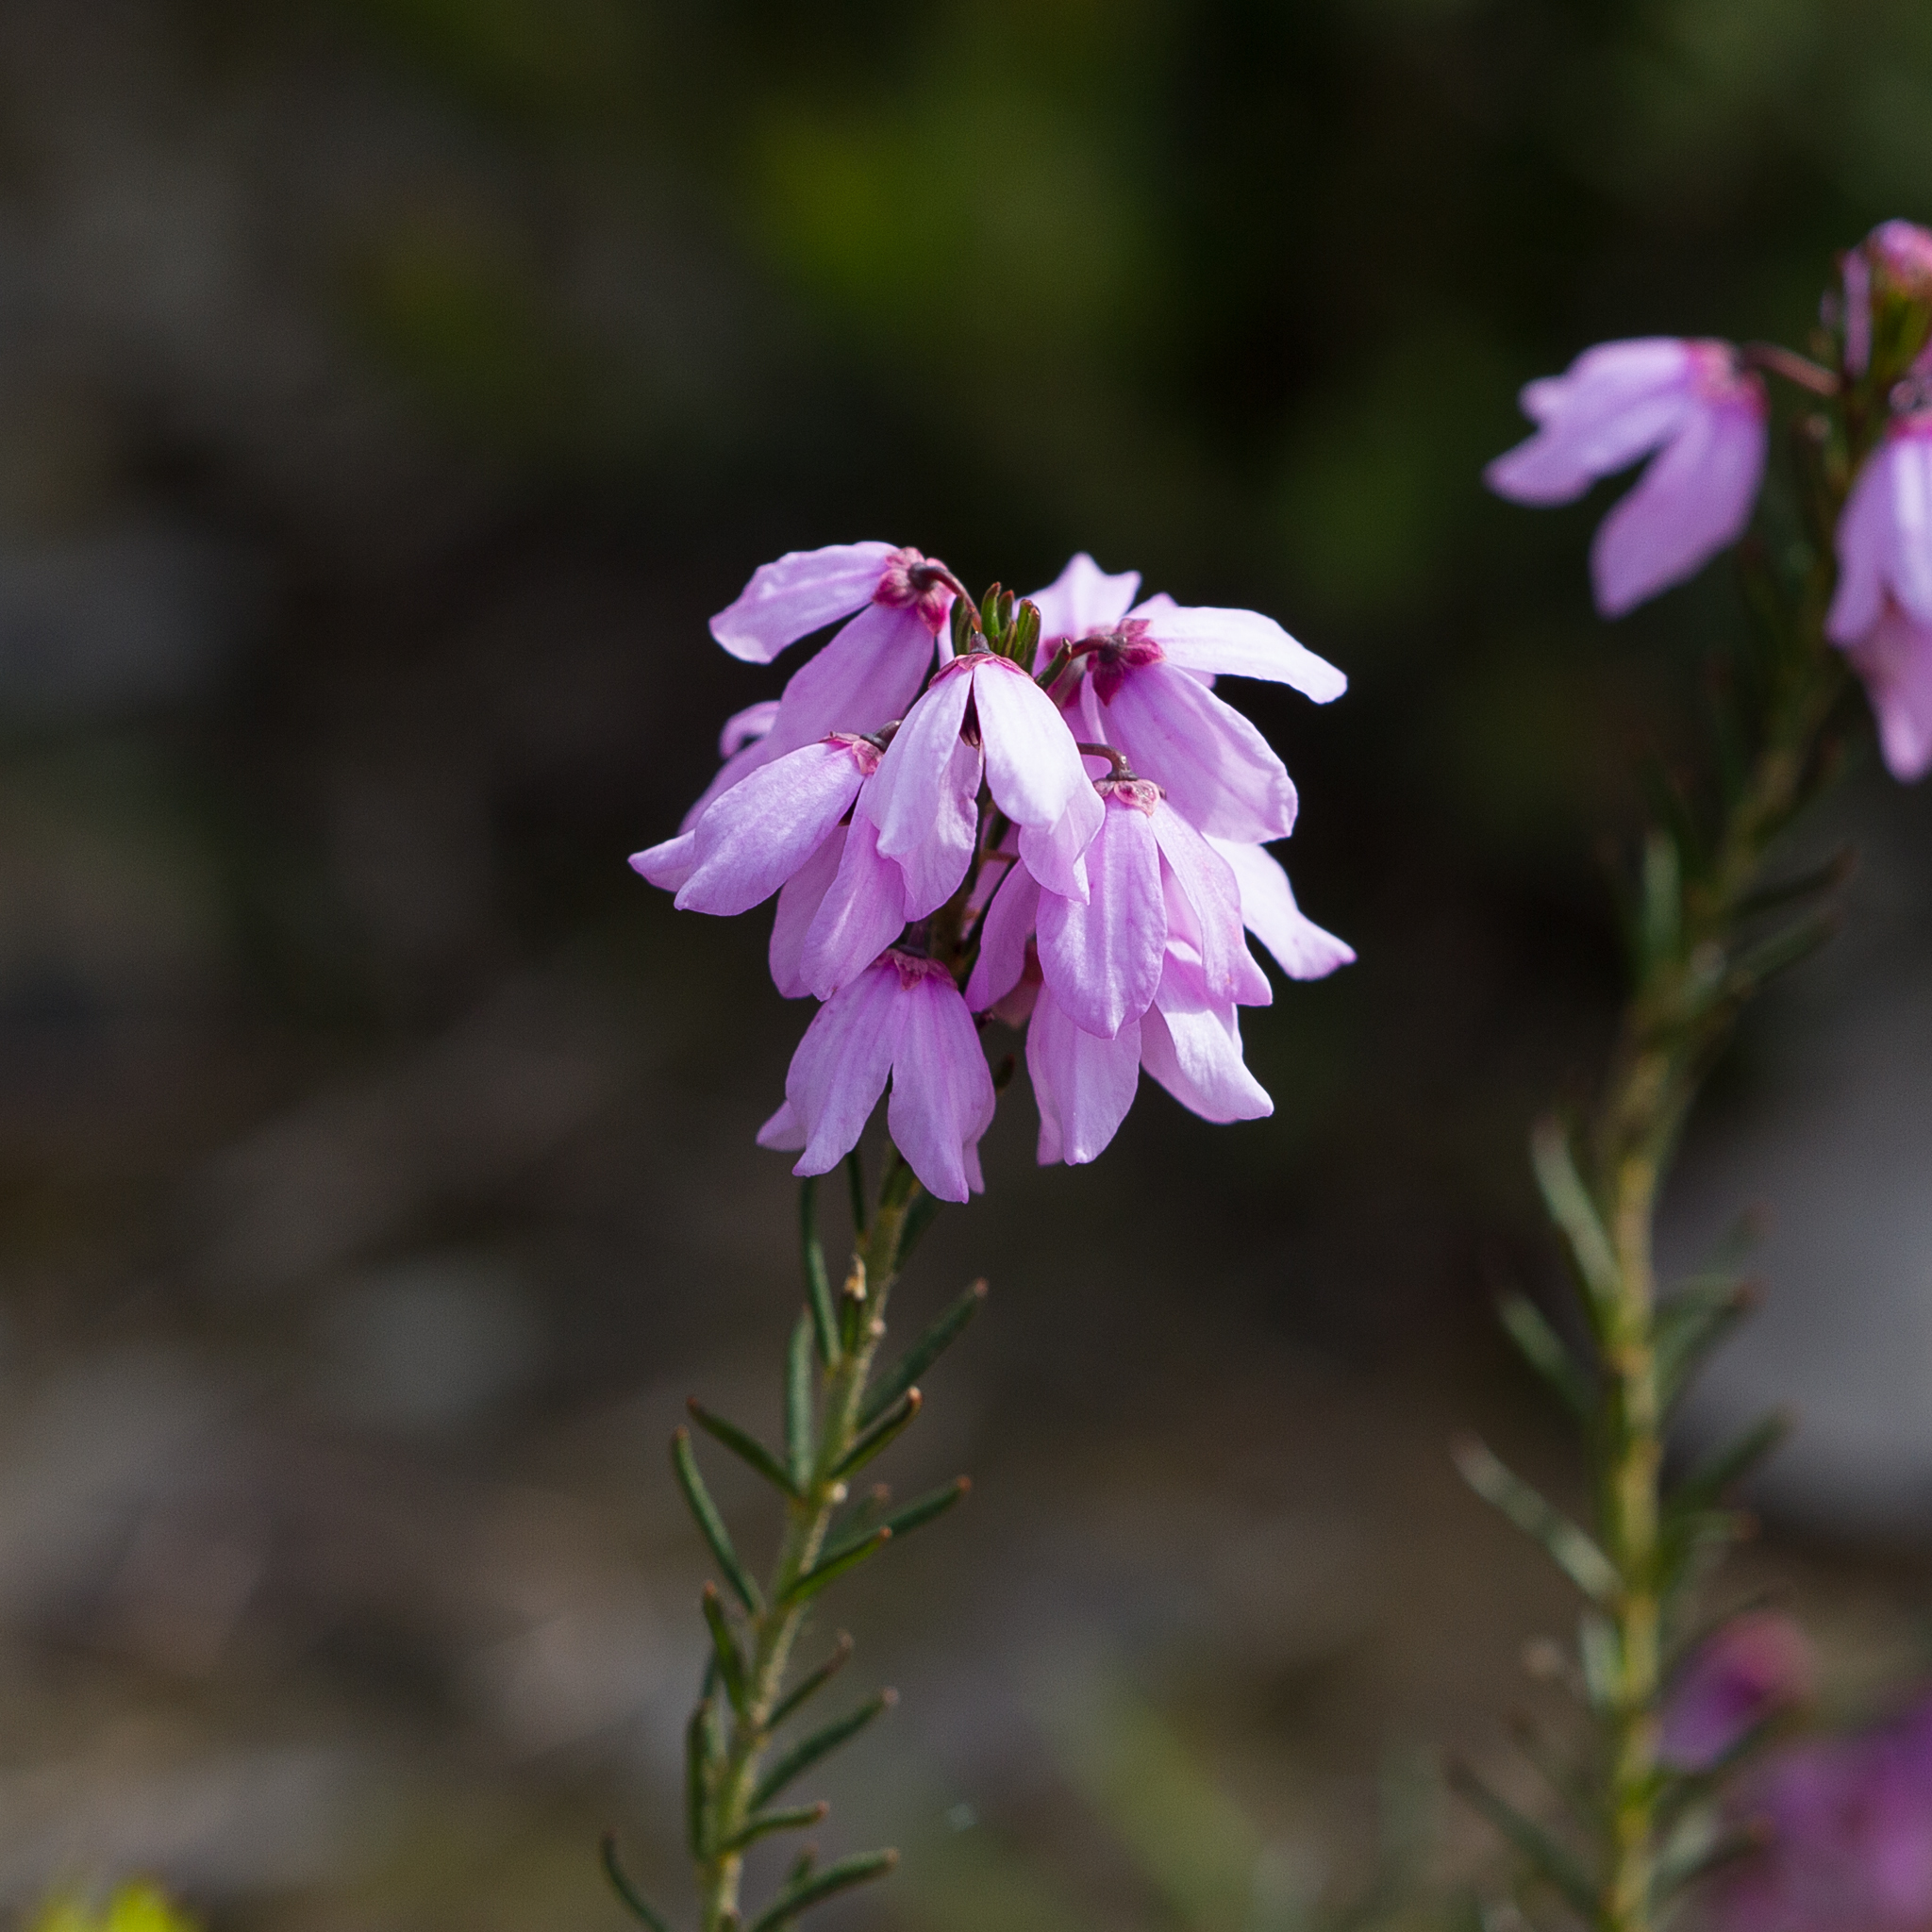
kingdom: Plantae
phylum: Tracheophyta
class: Magnoliopsida
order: Oxalidales
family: Elaeocarpaceae
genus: Tetratheca
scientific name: Tetratheca pilosa
